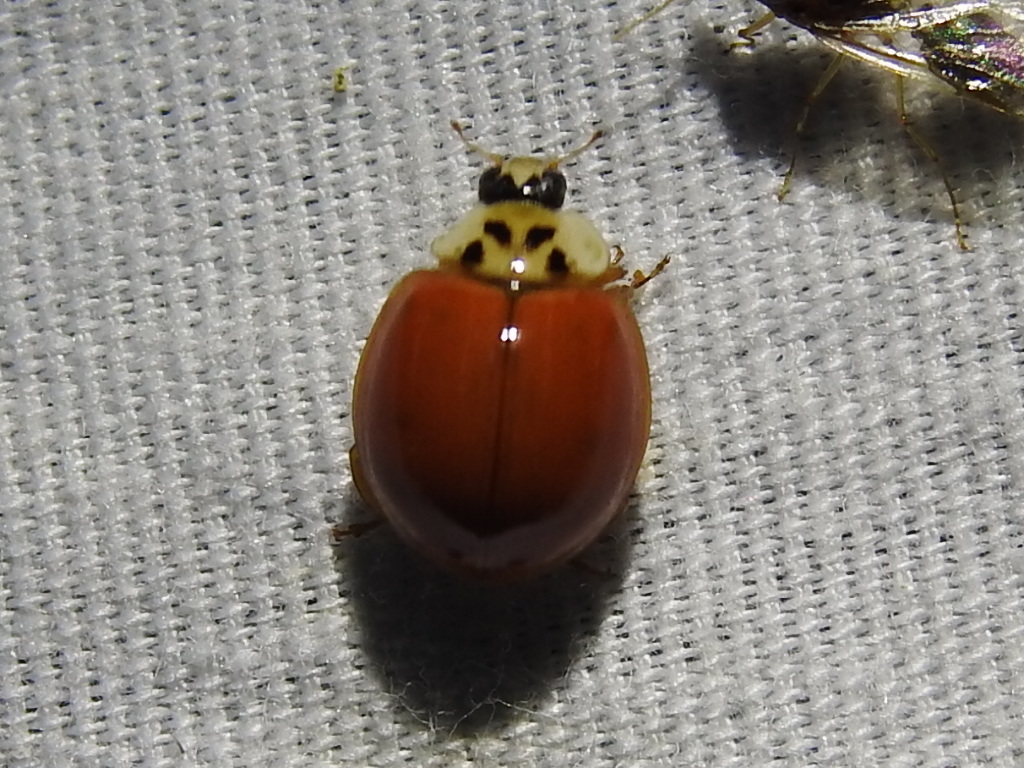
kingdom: Animalia
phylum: Arthropoda
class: Insecta
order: Coleoptera
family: Coccinellidae
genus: Harmonia
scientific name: Harmonia axyridis
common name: Harlequin ladybird
